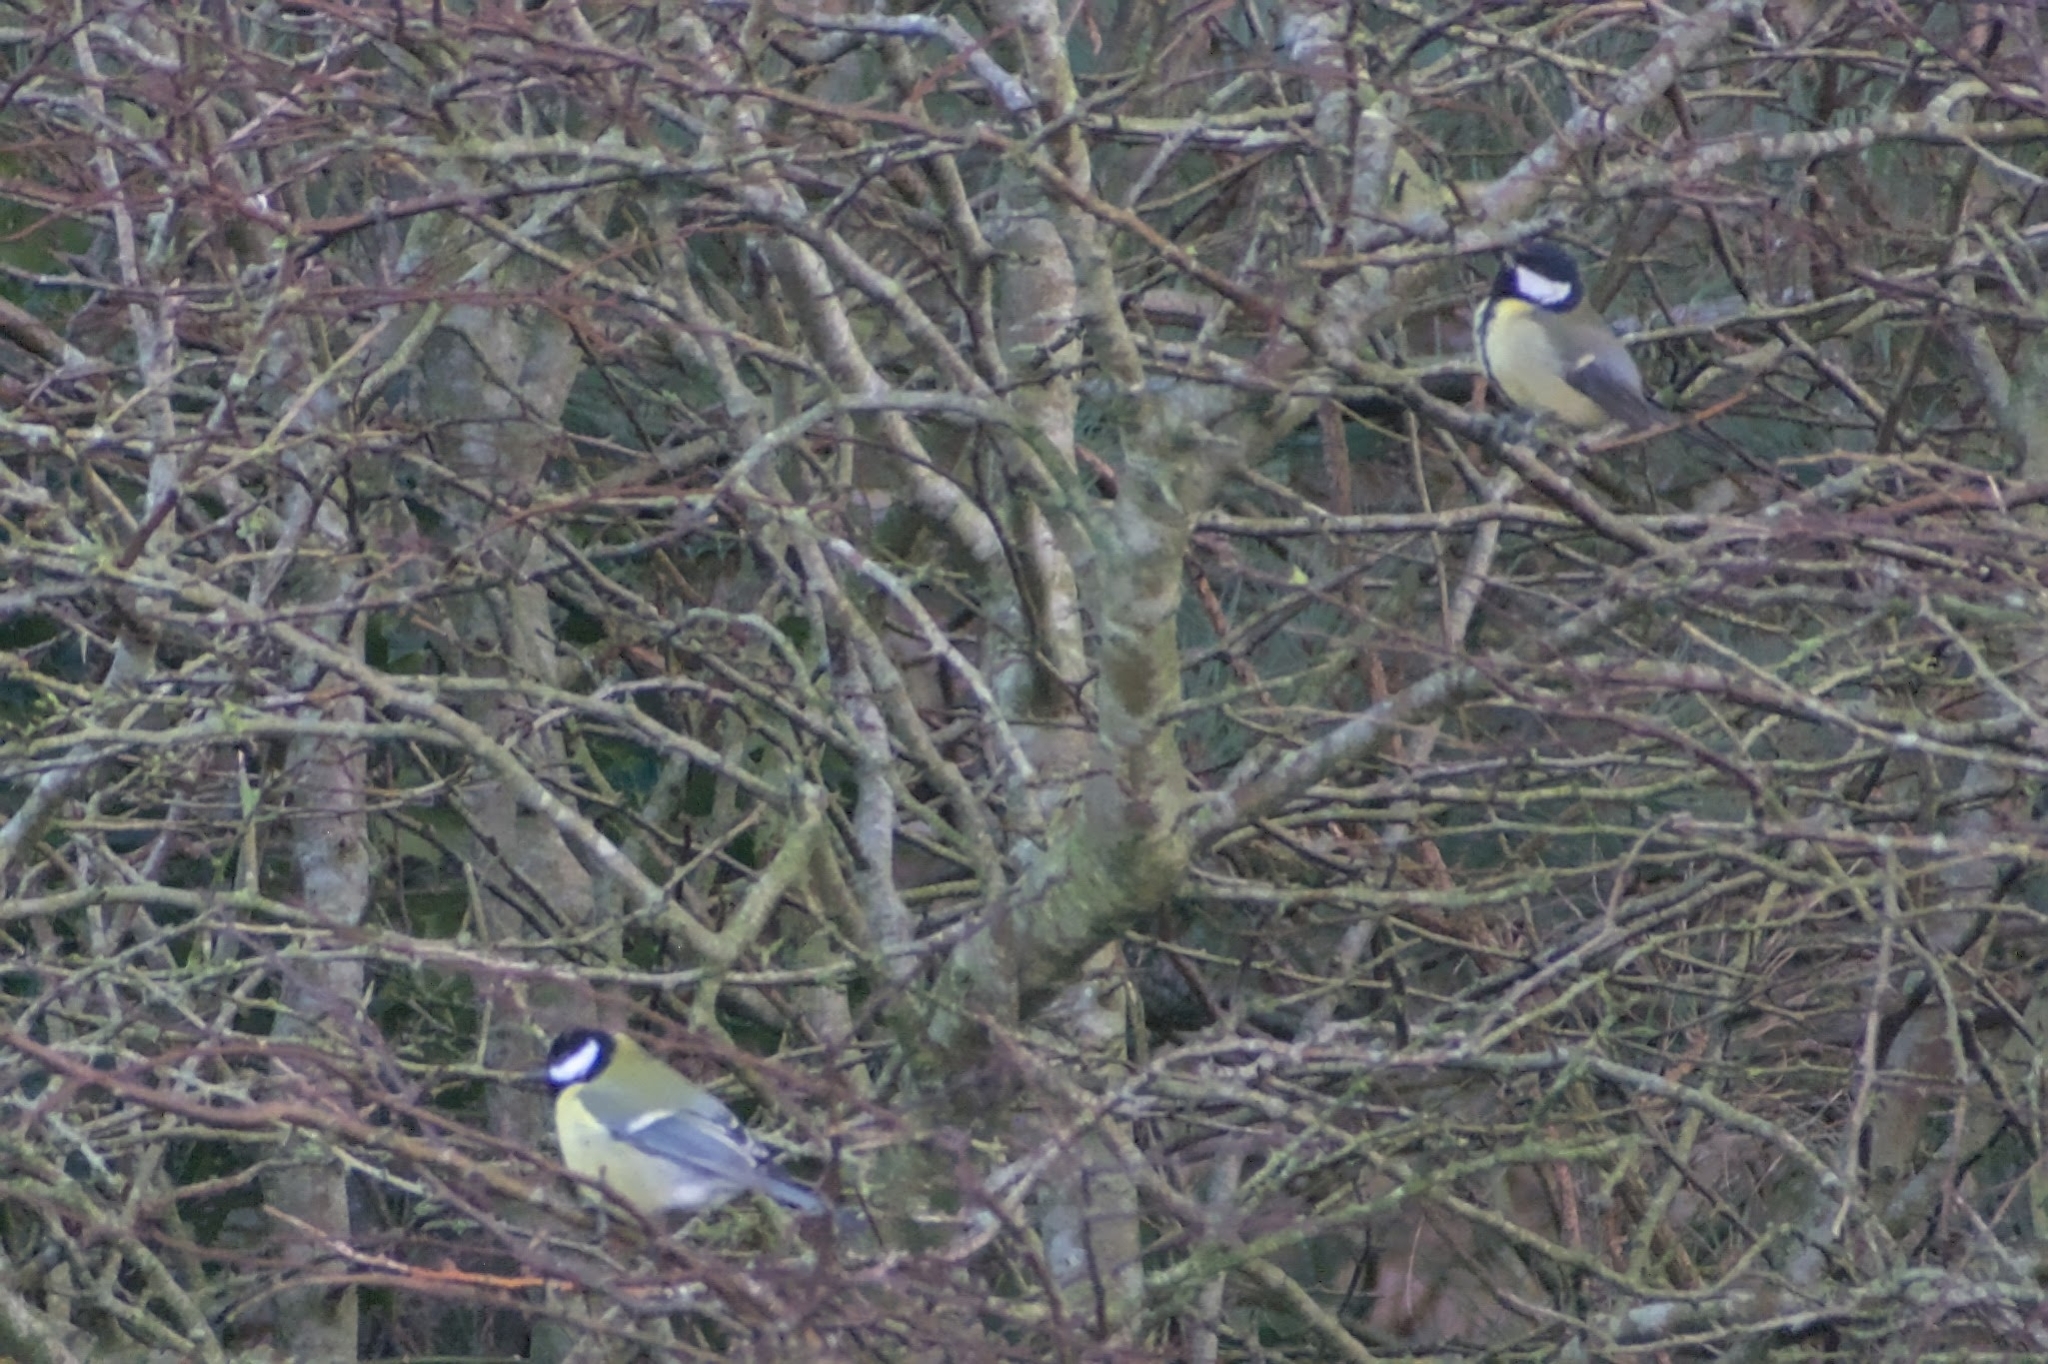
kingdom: Animalia
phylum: Chordata
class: Aves
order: Passeriformes
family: Paridae
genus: Parus
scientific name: Parus major
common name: Great tit
